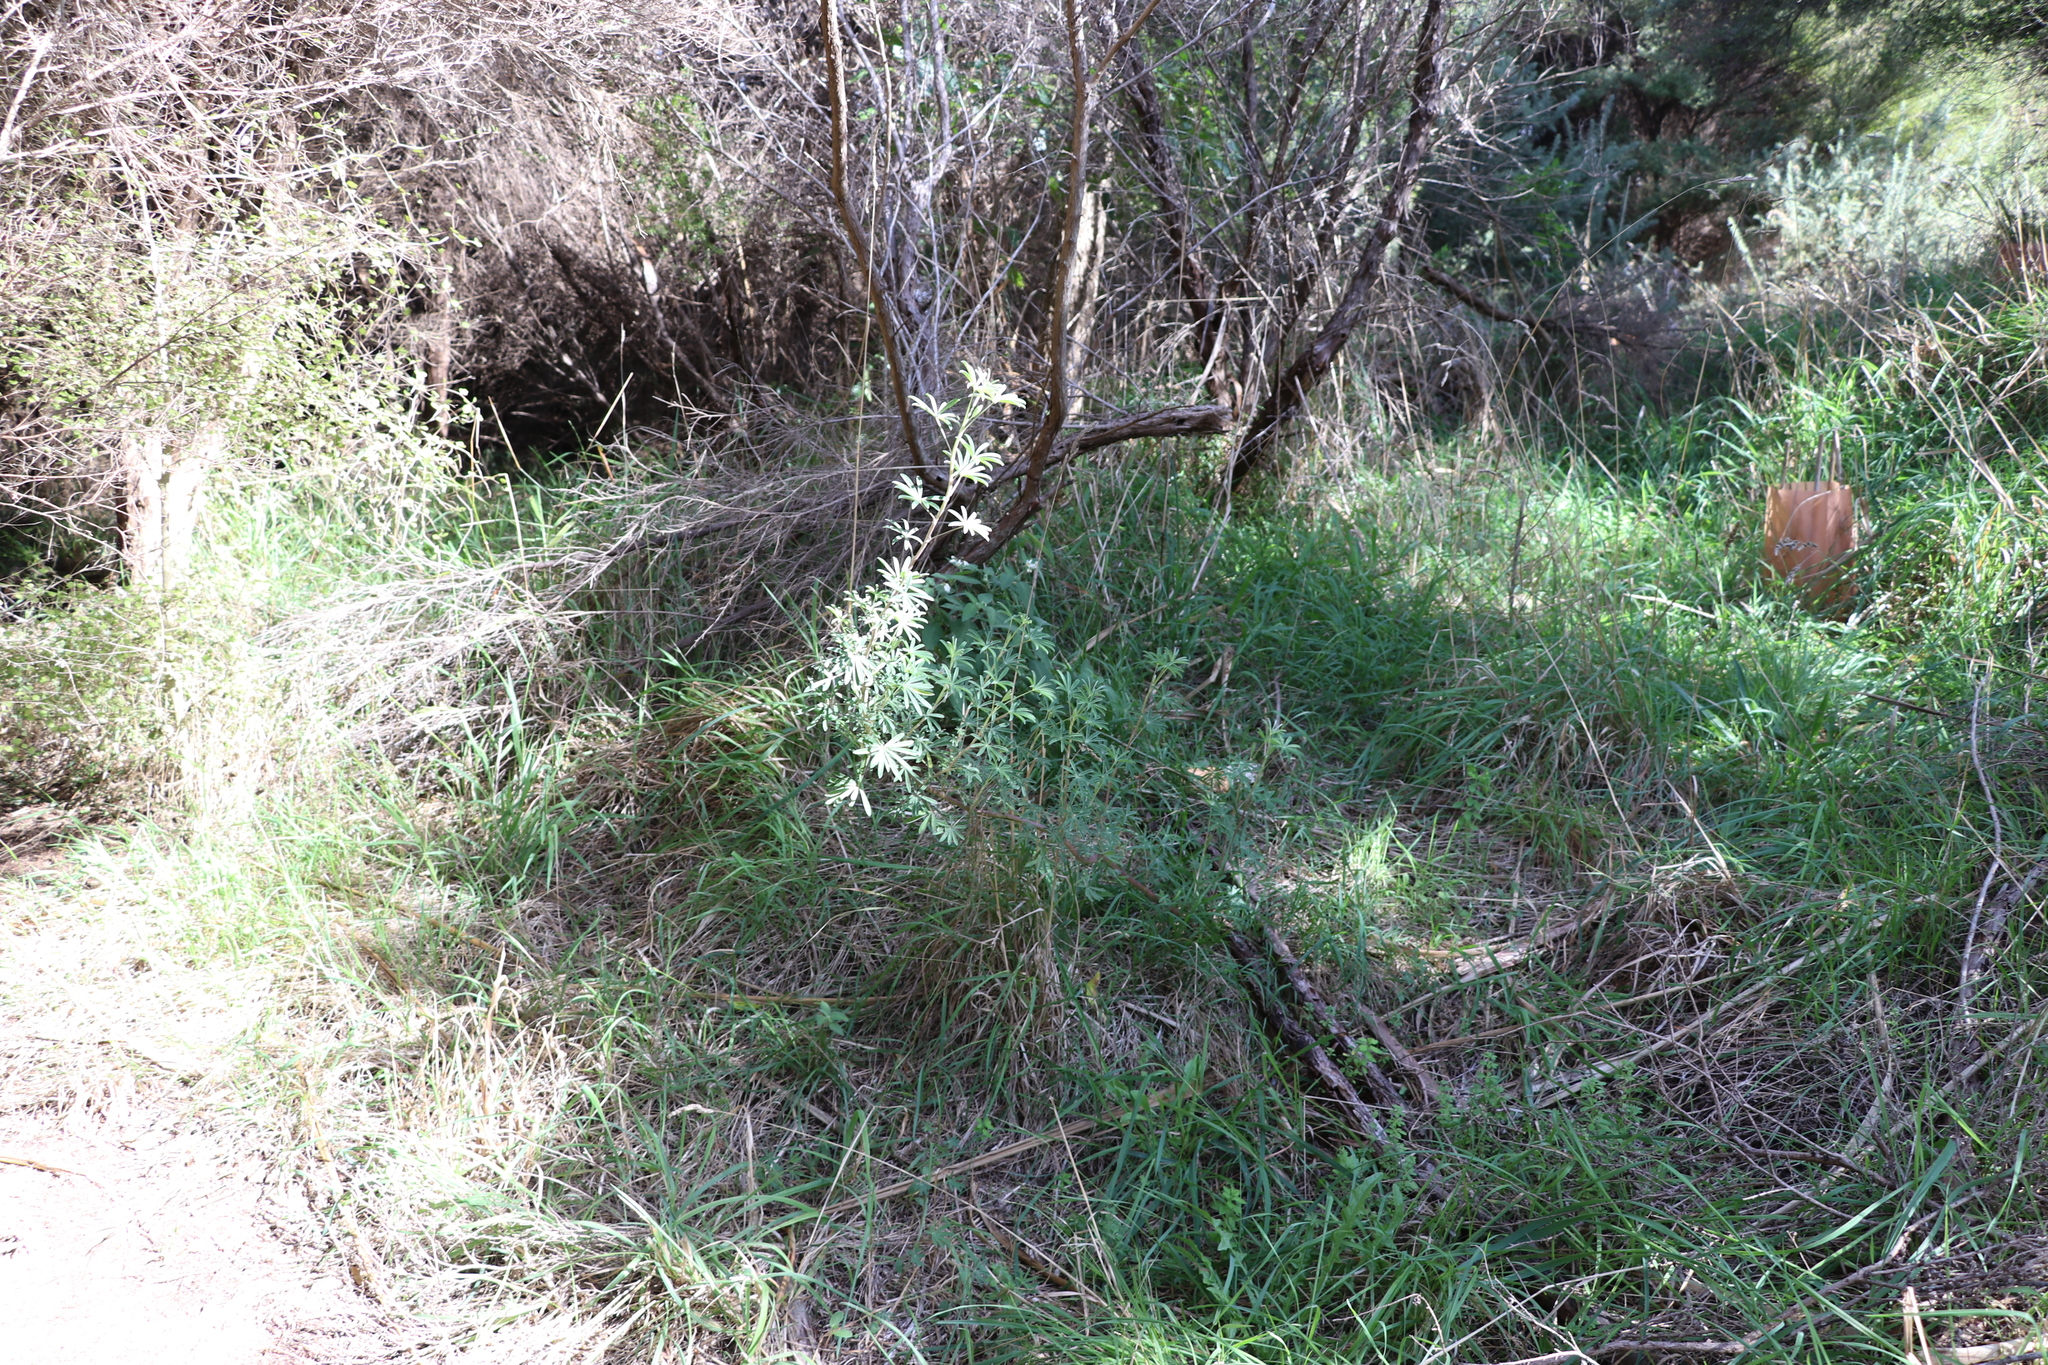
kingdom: Plantae
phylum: Tracheophyta
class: Magnoliopsida
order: Fabales
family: Fabaceae
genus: Lupinus
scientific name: Lupinus arboreus
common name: Yellow bush lupine
